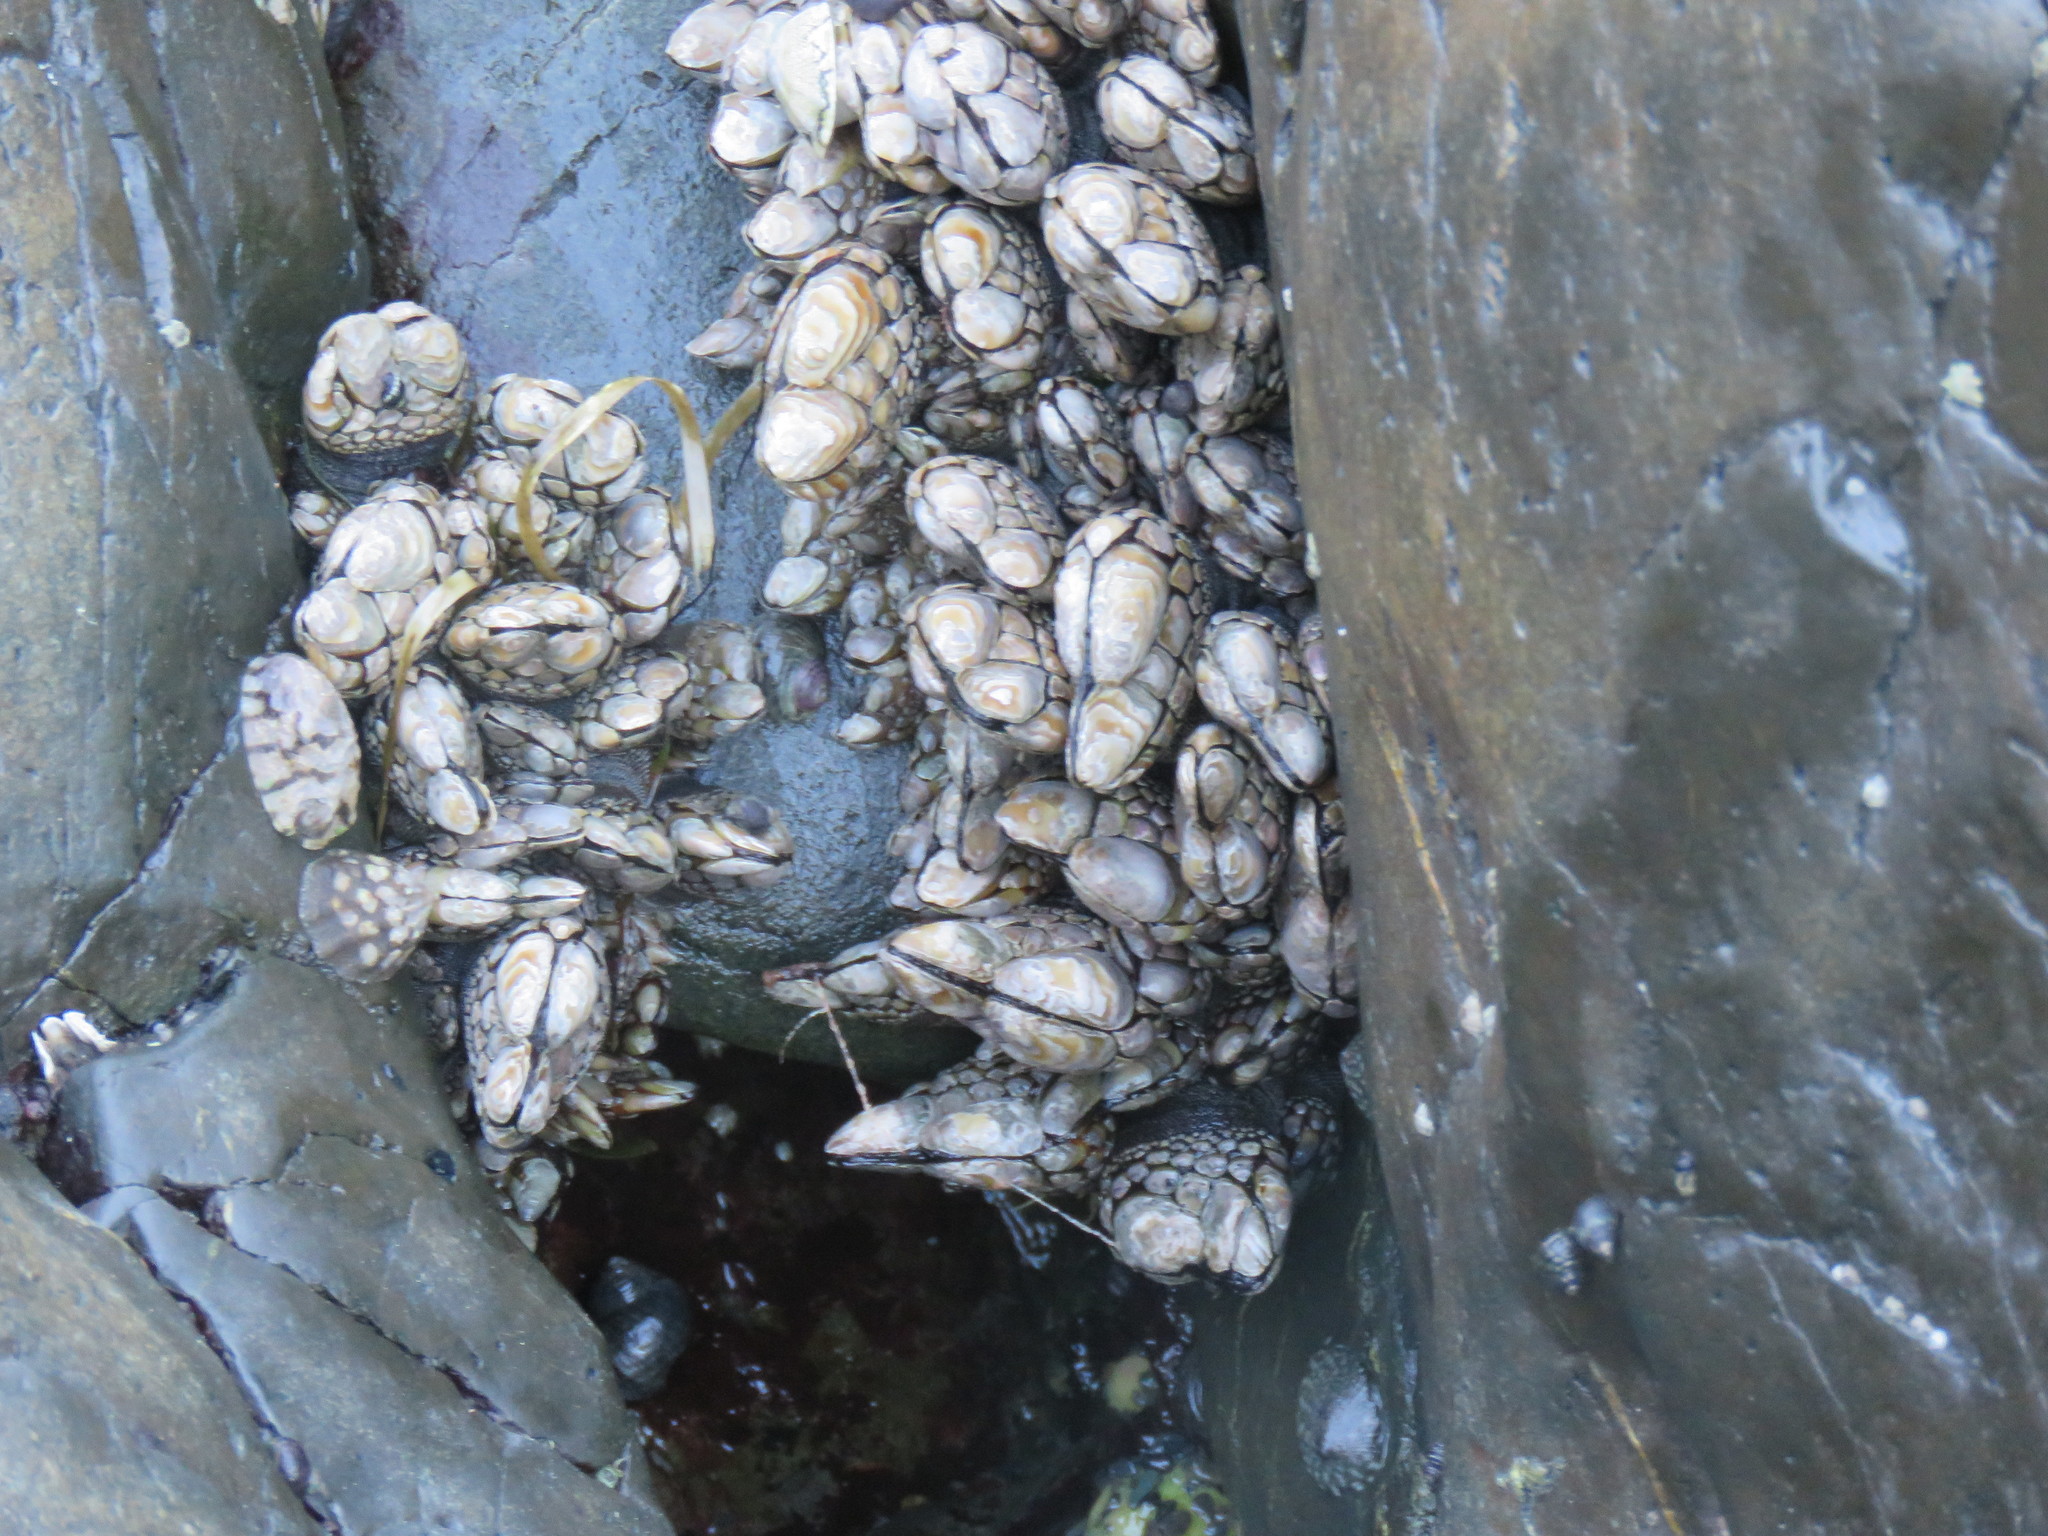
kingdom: Animalia
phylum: Arthropoda
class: Maxillopoda
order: Pedunculata
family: Pollicipedidae
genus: Pollicipes
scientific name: Pollicipes polymerus
